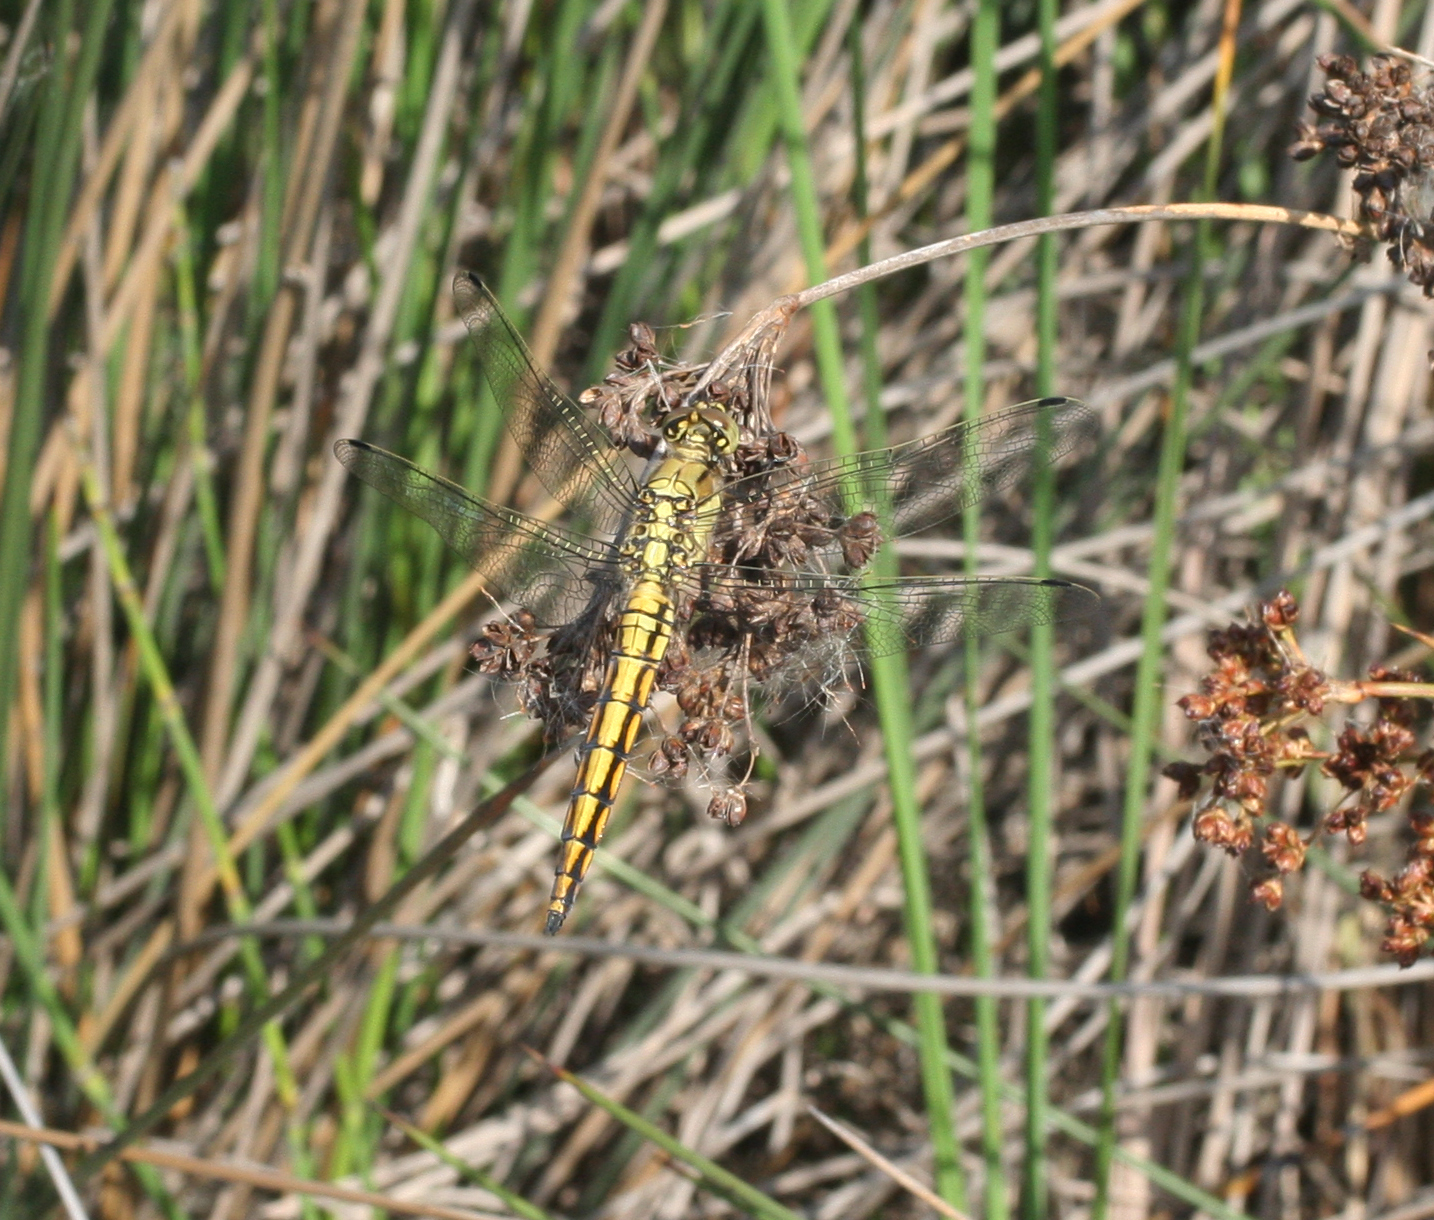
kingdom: Animalia
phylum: Arthropoda
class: Insecta
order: Odonata
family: Libellulidae
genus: Orthetrum
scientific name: Orthetrum cancellatum
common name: Black-tailed skimmer
